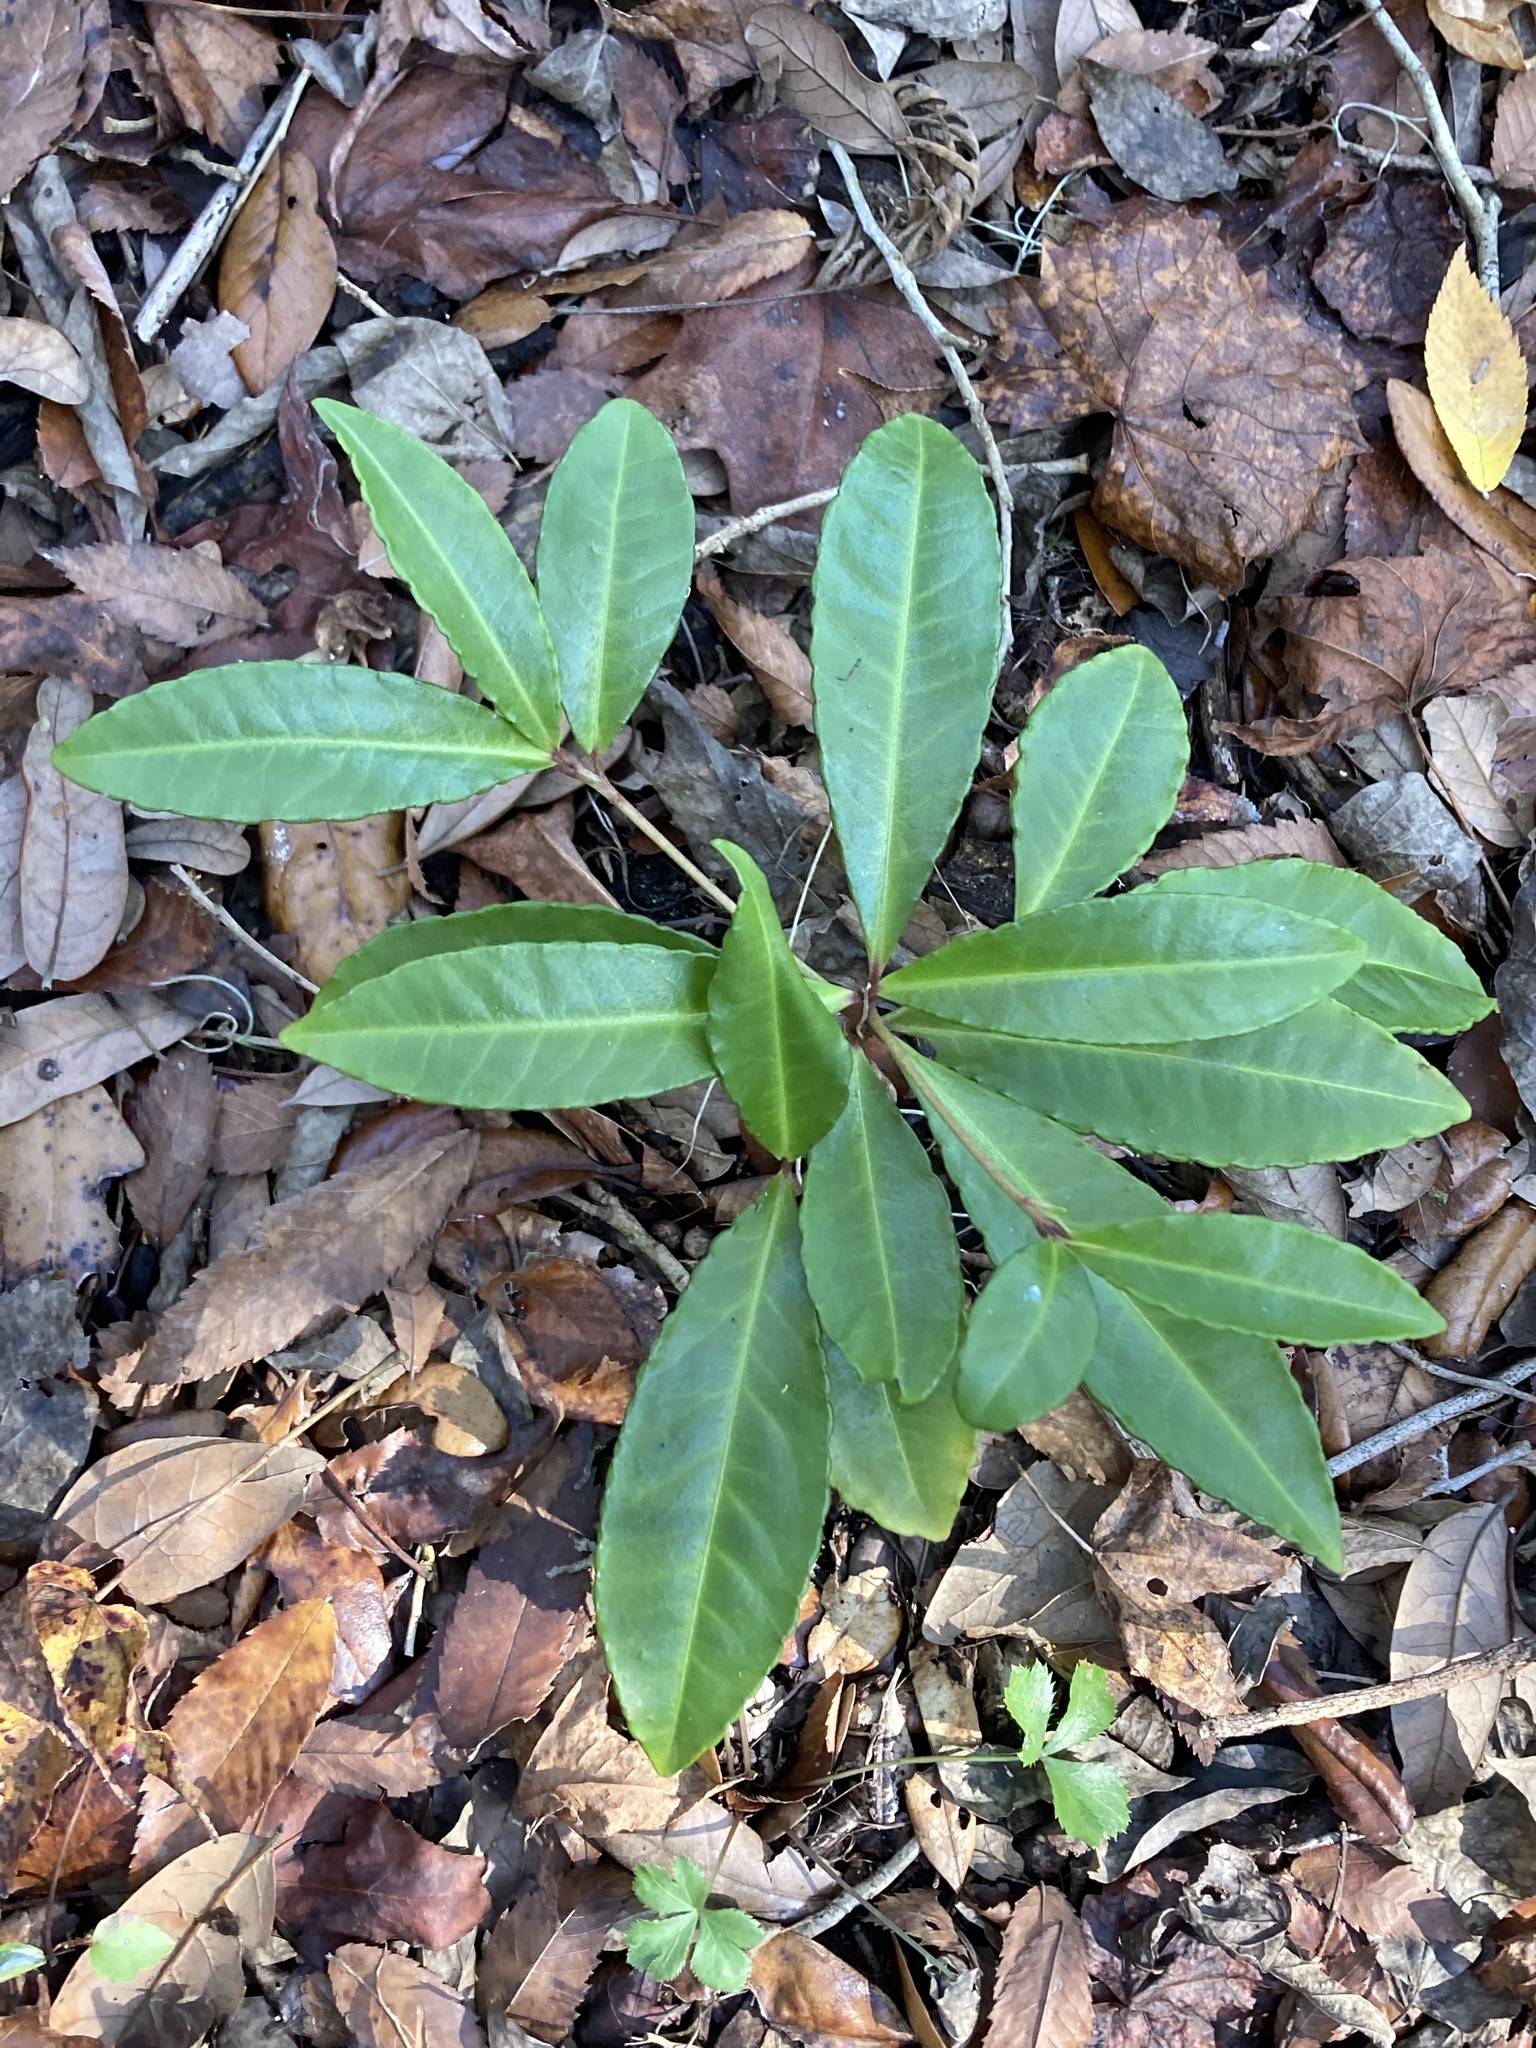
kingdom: Plantae
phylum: Tracheophyta
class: Magnoliopsida
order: Ericales
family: Primulaceae
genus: Ardisia
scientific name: Ardisia crenata
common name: Hen's eyes
